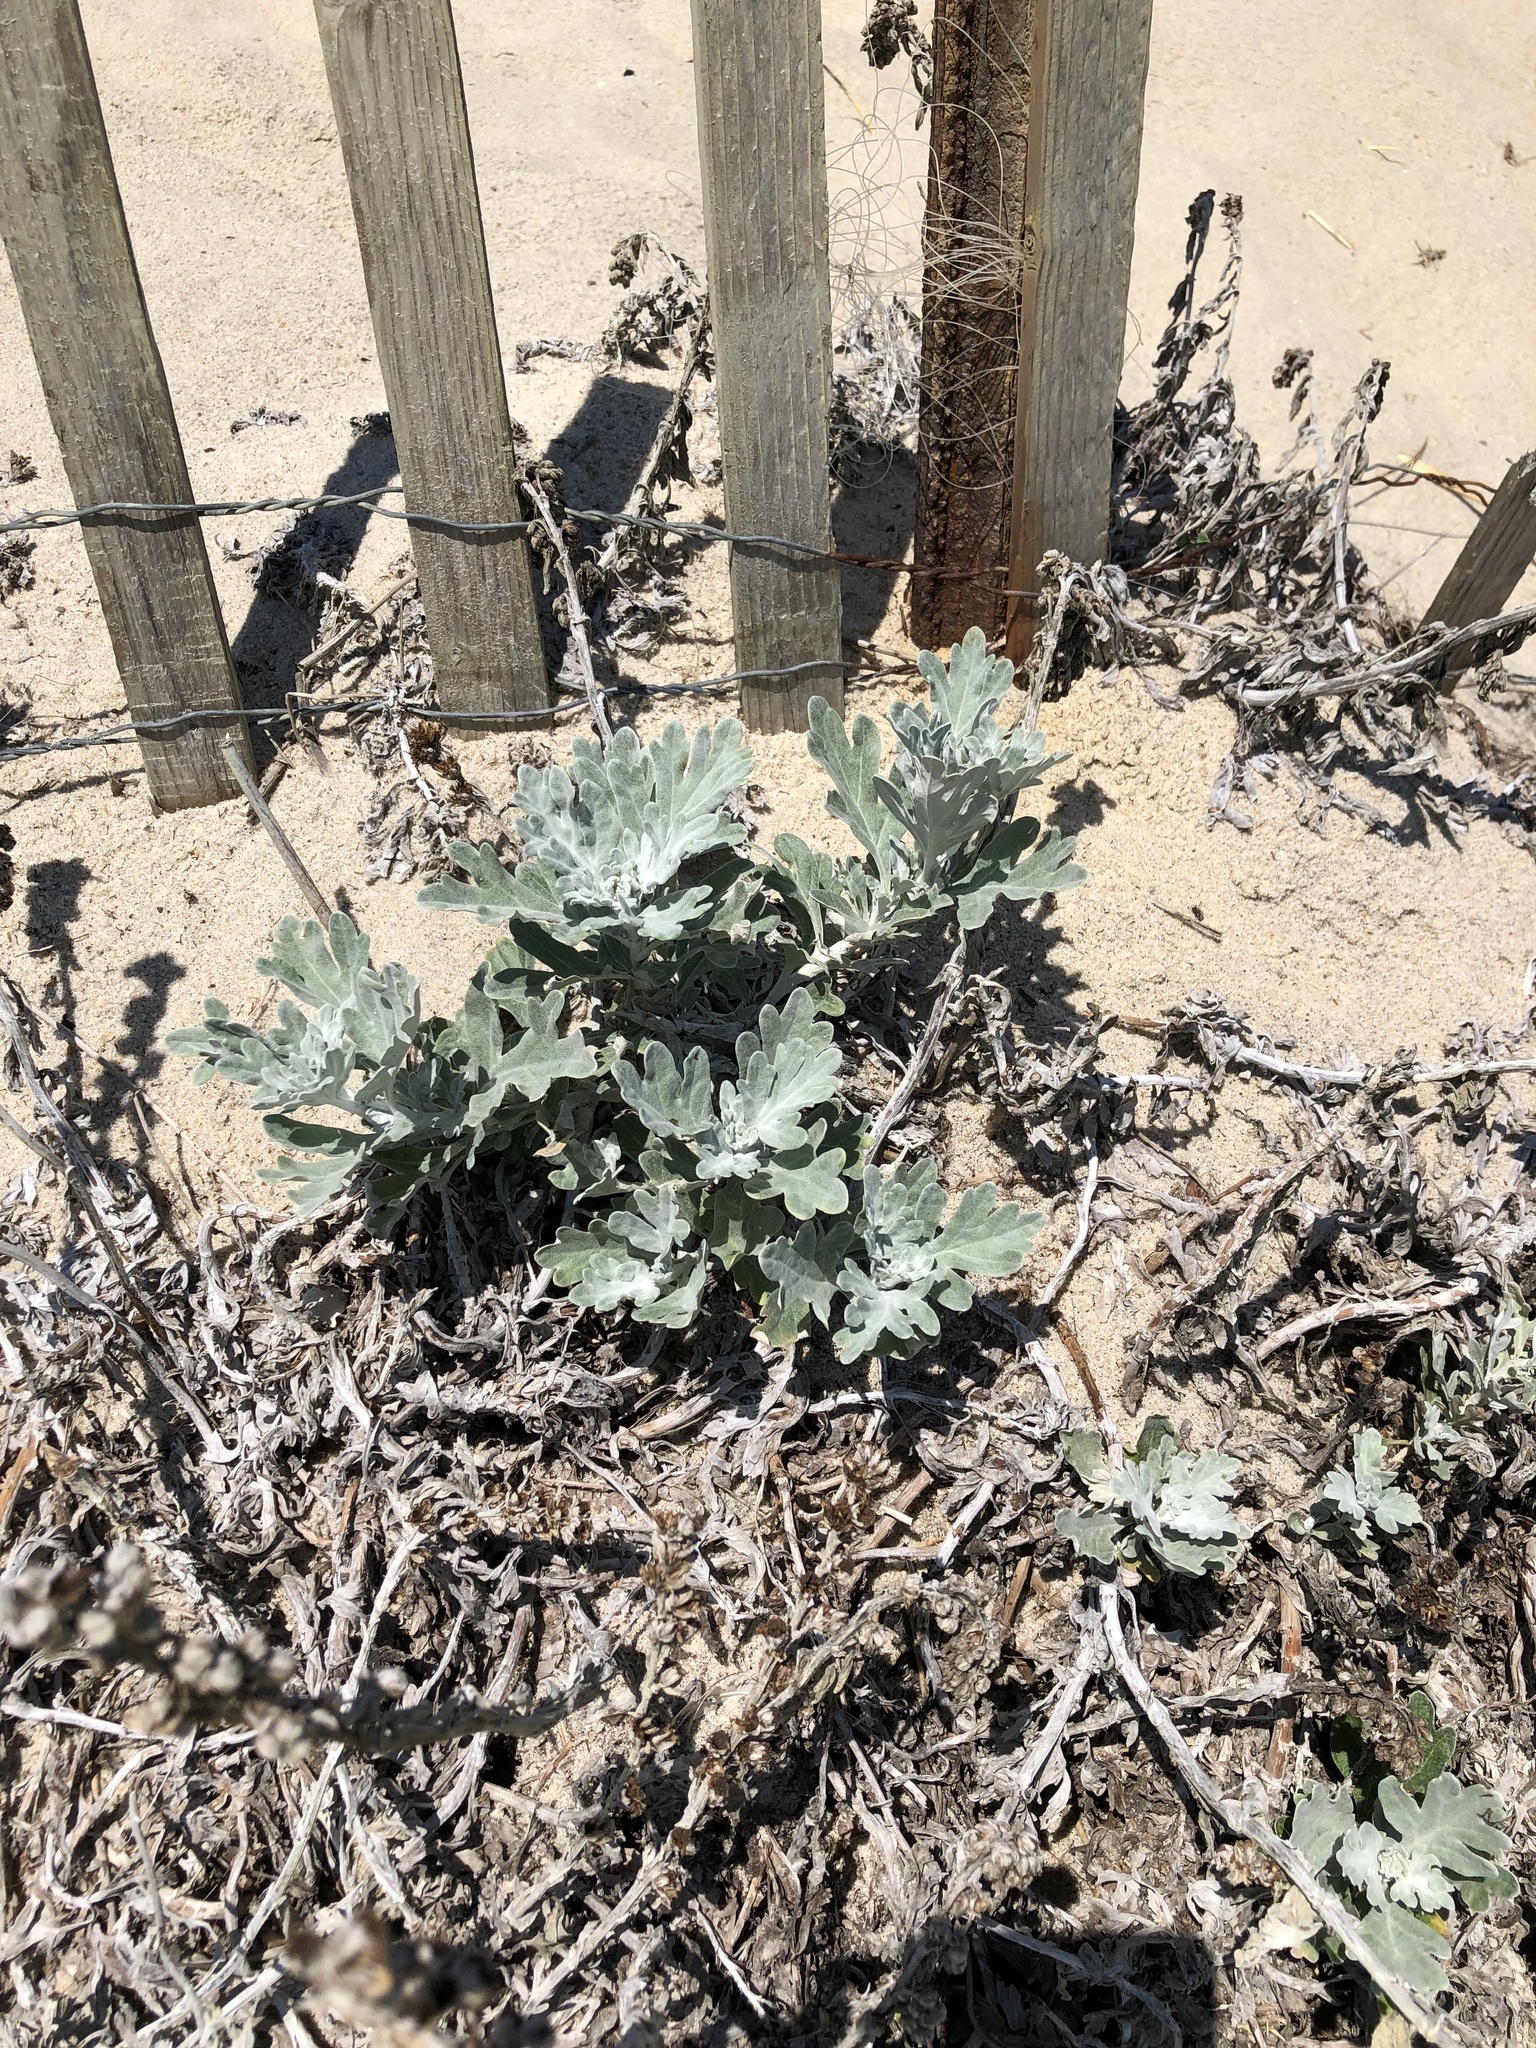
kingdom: Plantae
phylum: Tracheophyta
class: Magnoliopsida
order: Asterales
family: Asteraceae
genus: Artemisia
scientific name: Artemisia stelleriana
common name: Beach wormwood
